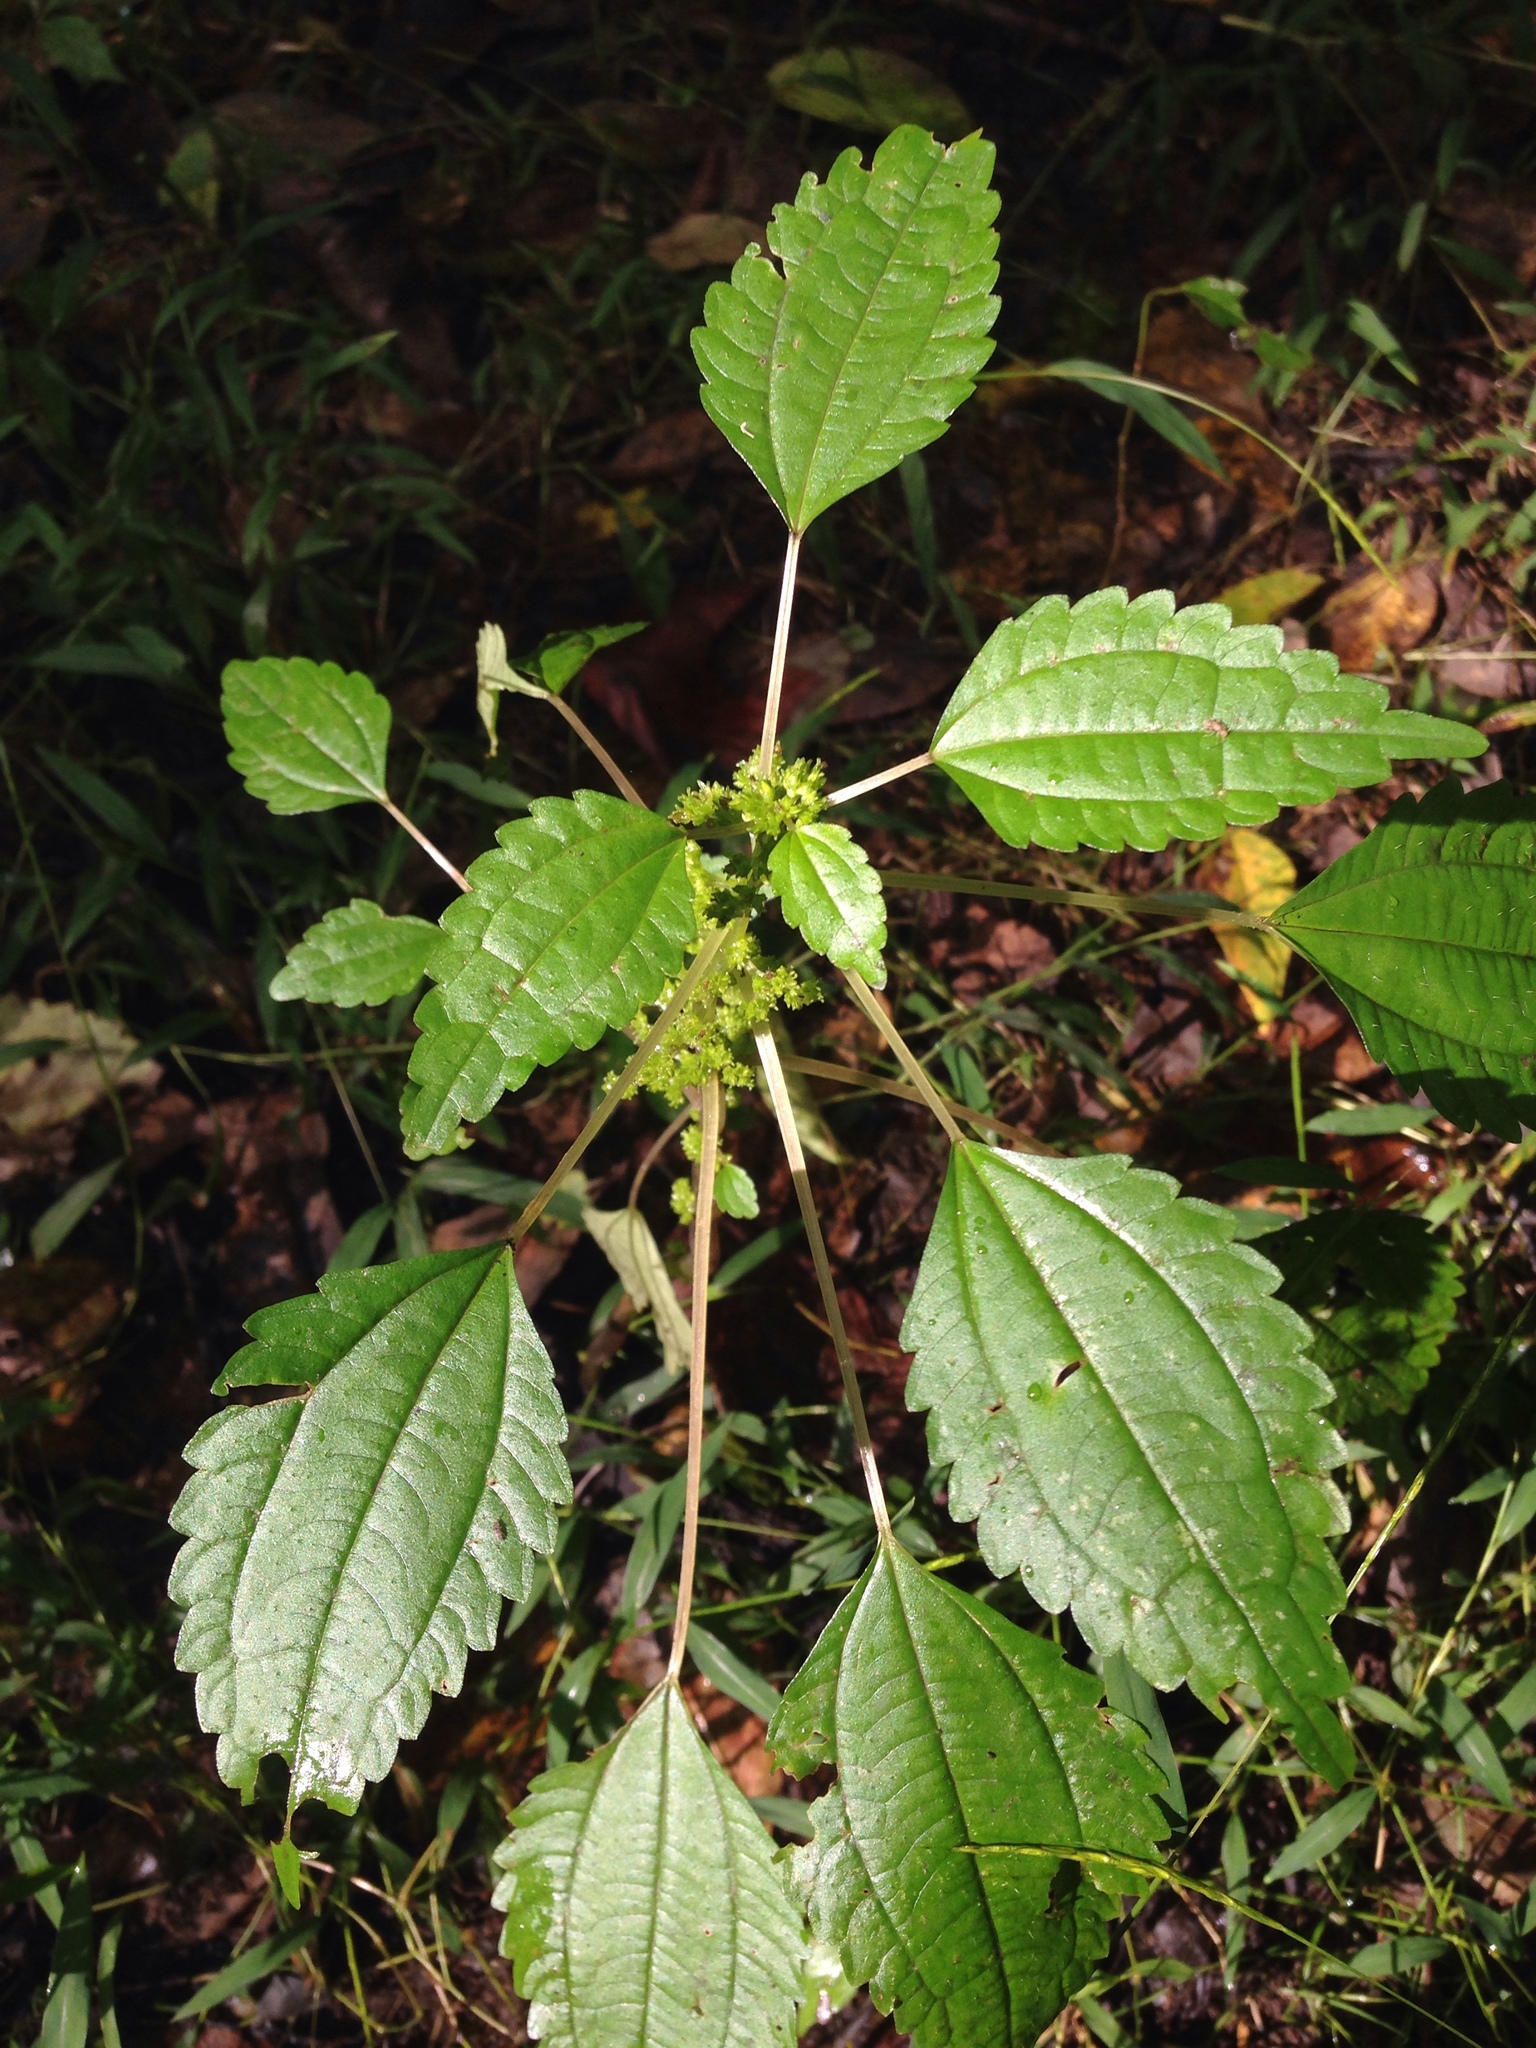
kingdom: Plantae
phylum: Tracheophyta
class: Magnoliopsida
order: Rosales
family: Urticaceae
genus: Pilea
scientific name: Pilea pumila
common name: Clearweed
